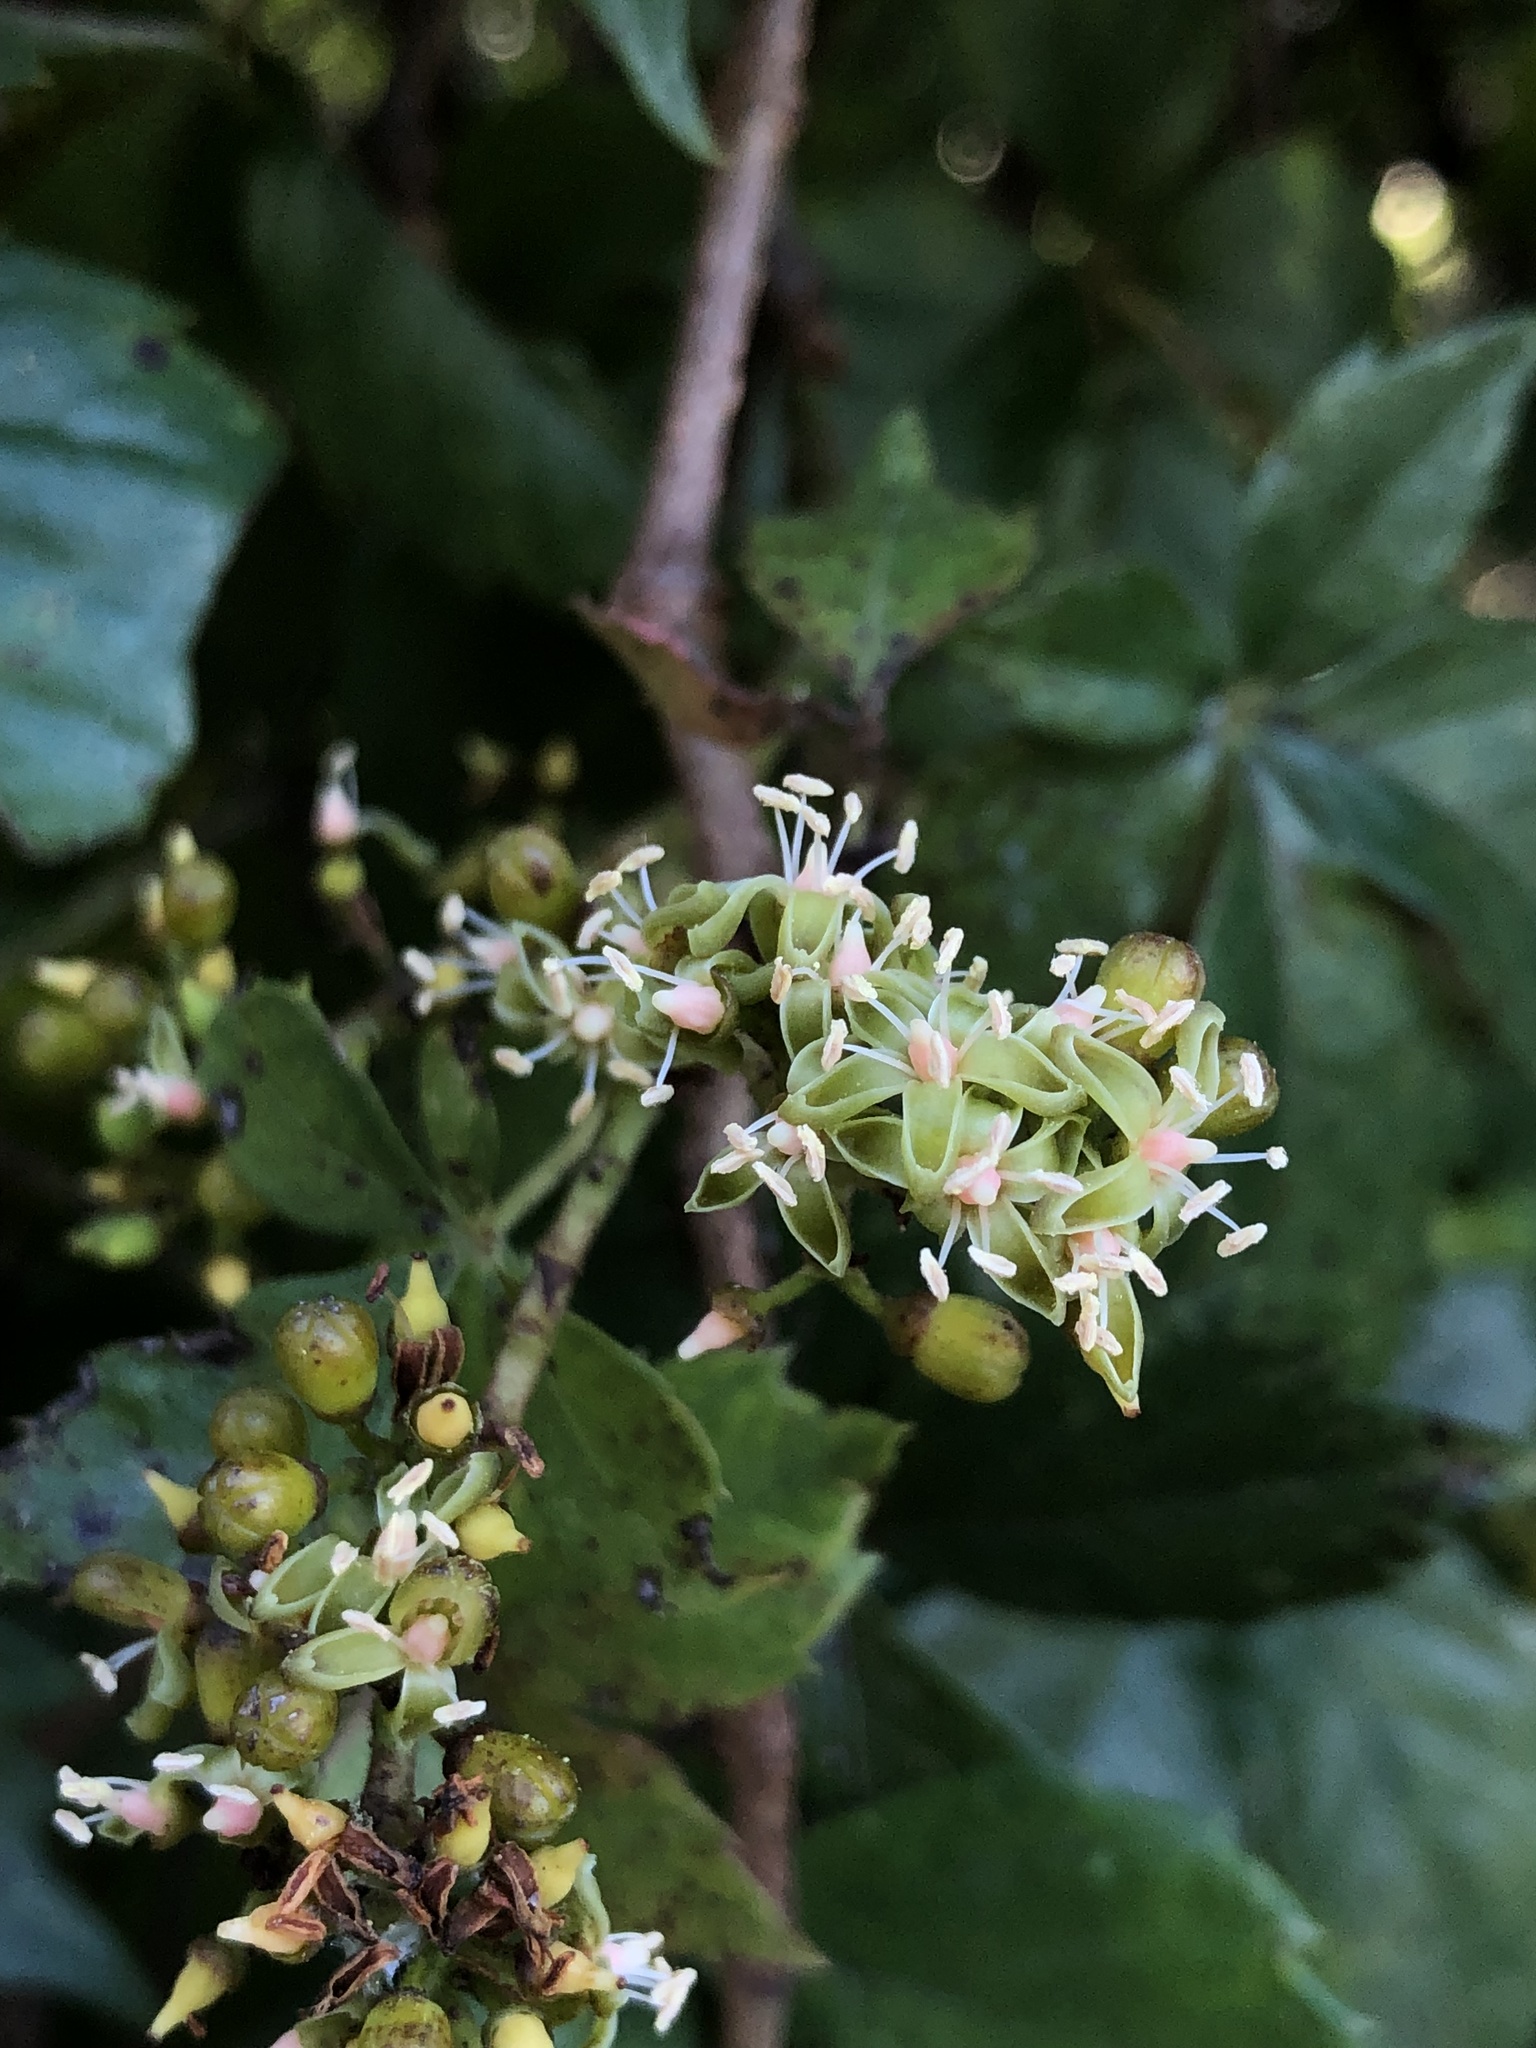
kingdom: Plantae
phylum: Tracheophyta
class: Magnoliopsida
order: Vitales
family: Vitaceae
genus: Parthenocissus
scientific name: Parthenocissus quinquefolia
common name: Virginia-creeper
